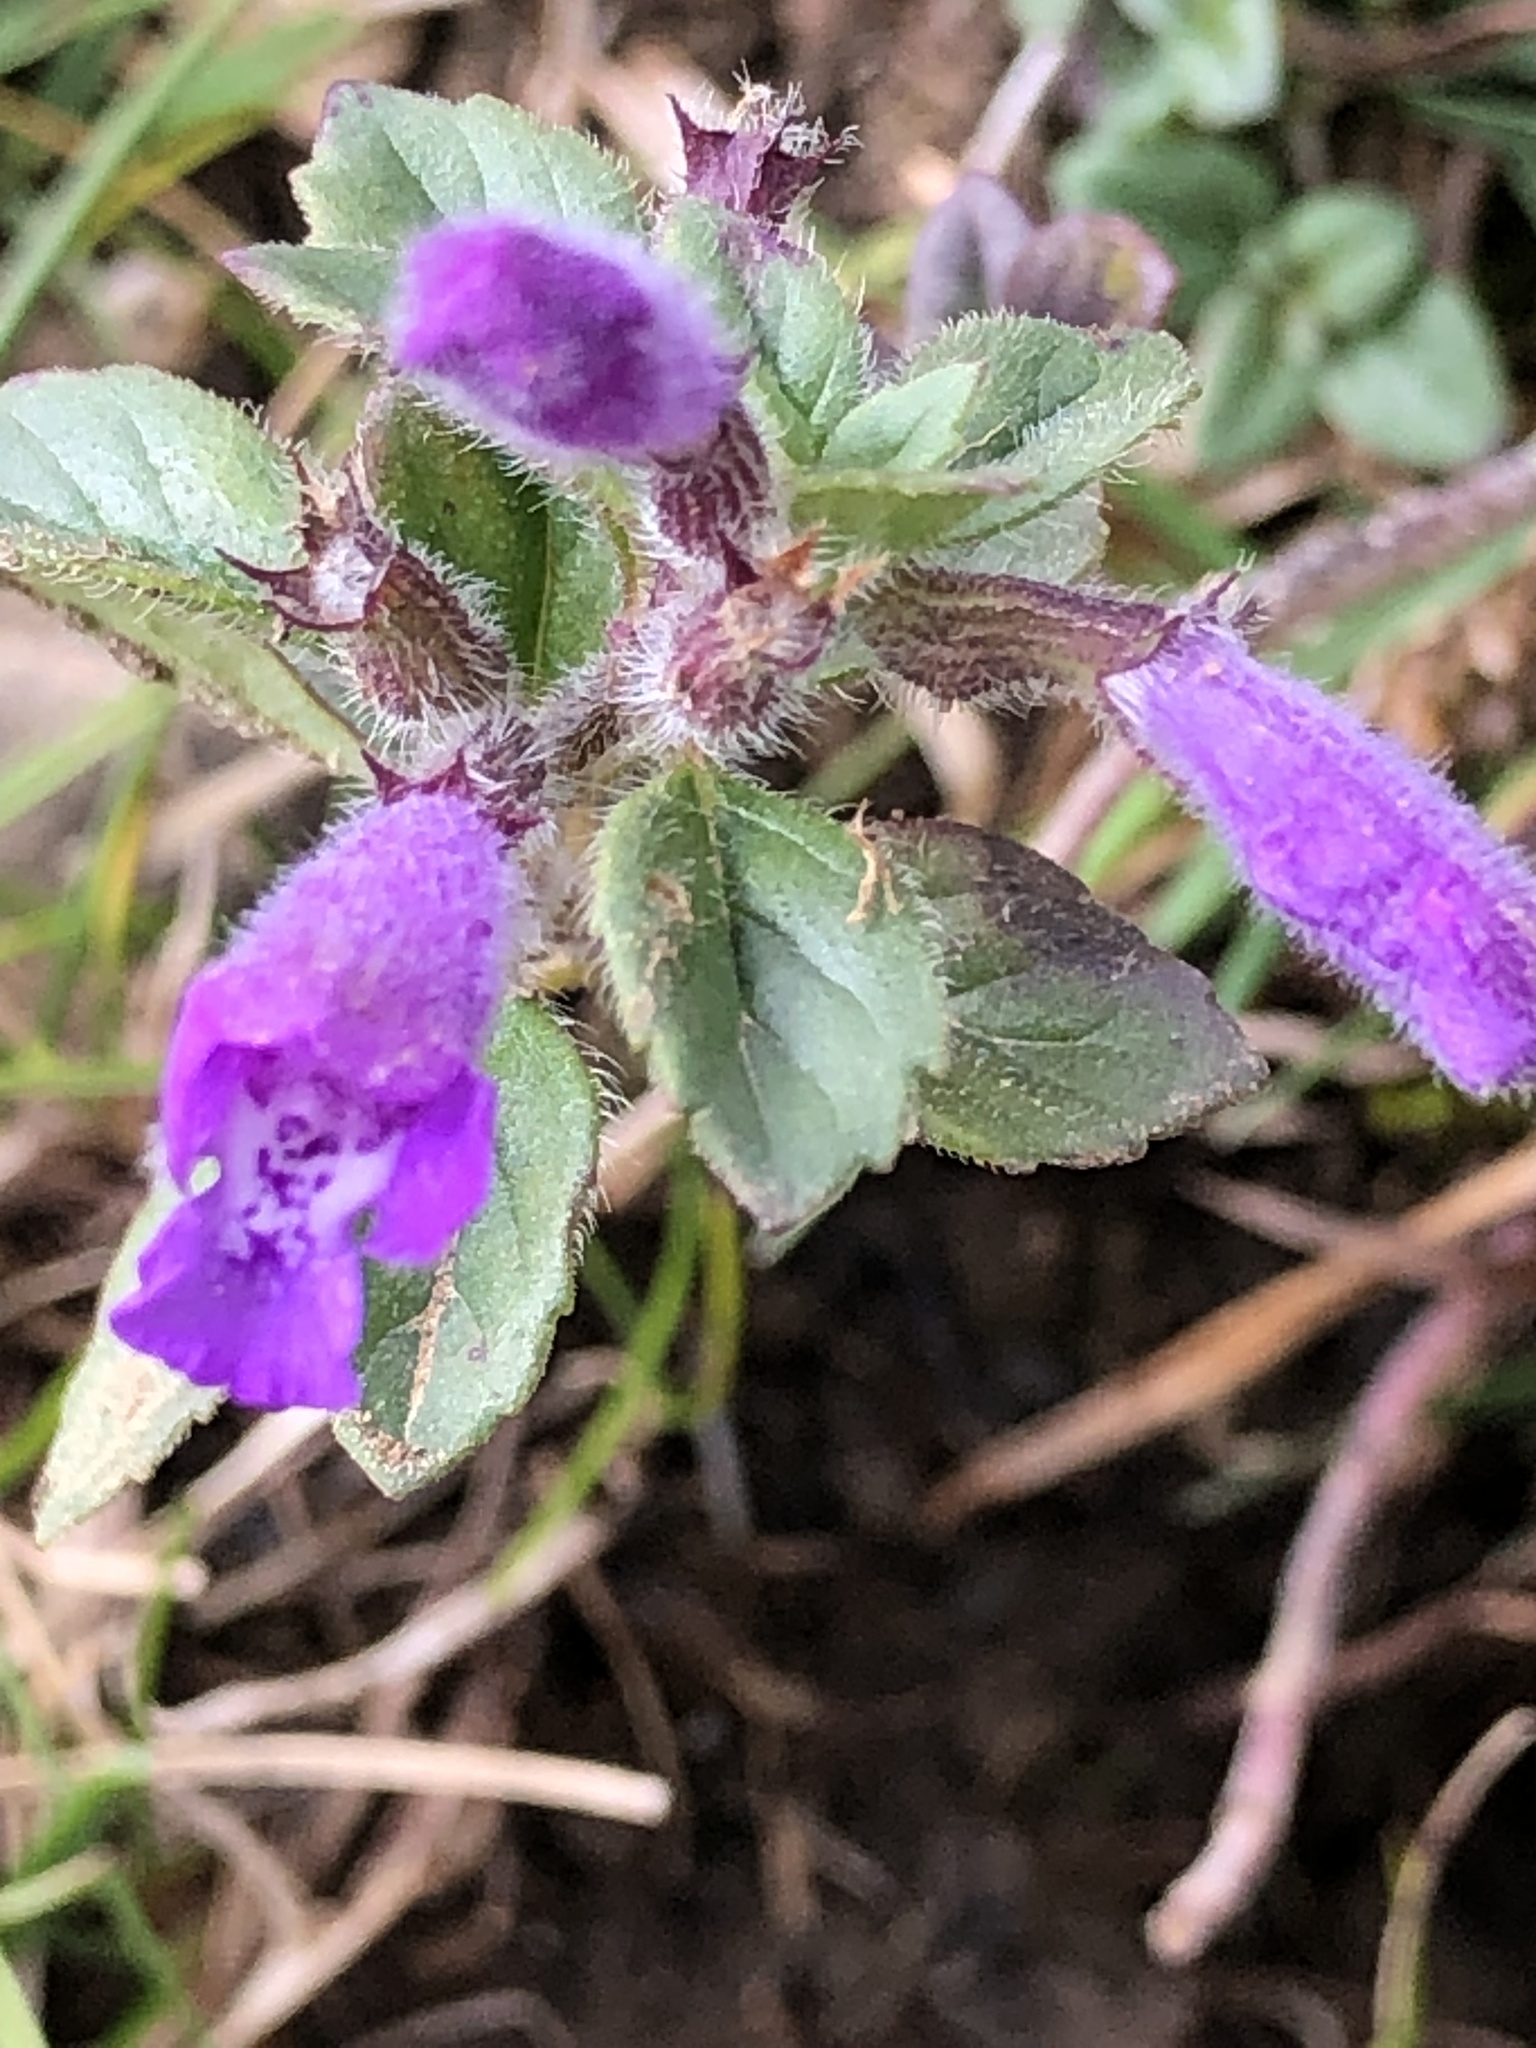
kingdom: Plantae
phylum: Tracheophyta
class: Magnoliopsida
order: Lamiales
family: Lamiaceae
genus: Clinopodium
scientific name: Clinopodium alpinum
